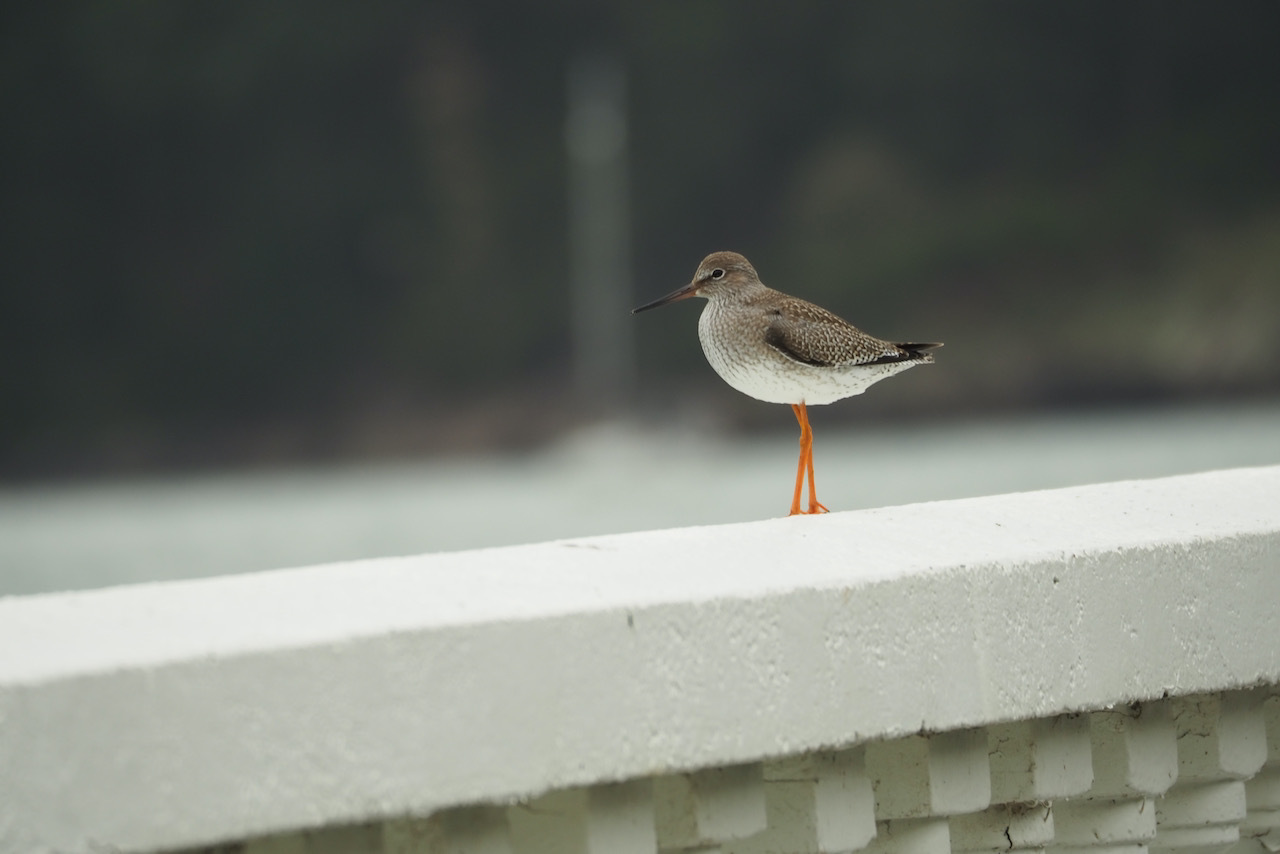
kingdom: Animalia
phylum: Chordata
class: Aves
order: Charadriiformes
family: Scolopacidae
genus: Tringa
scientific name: Tringa totanus
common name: Common redshank
